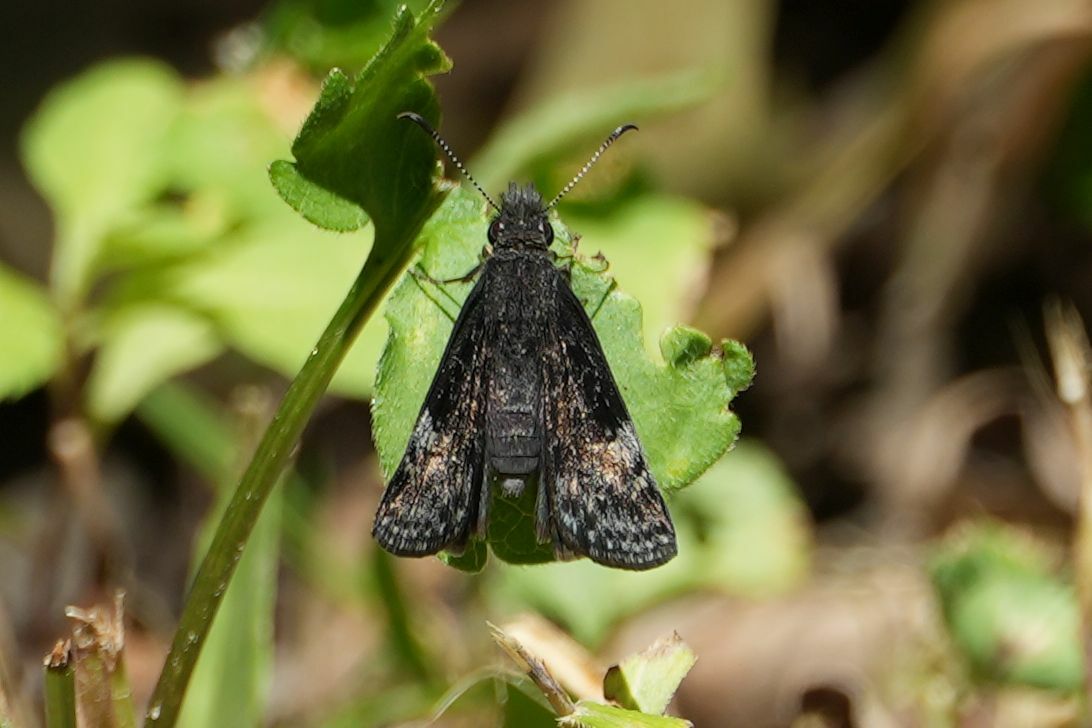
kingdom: Animalia
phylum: Arthropoda
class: Insecta
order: Lepidoptera
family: Hesperiidae
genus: Erynnis
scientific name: Erynnis lucilius
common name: Columbine duskywing
